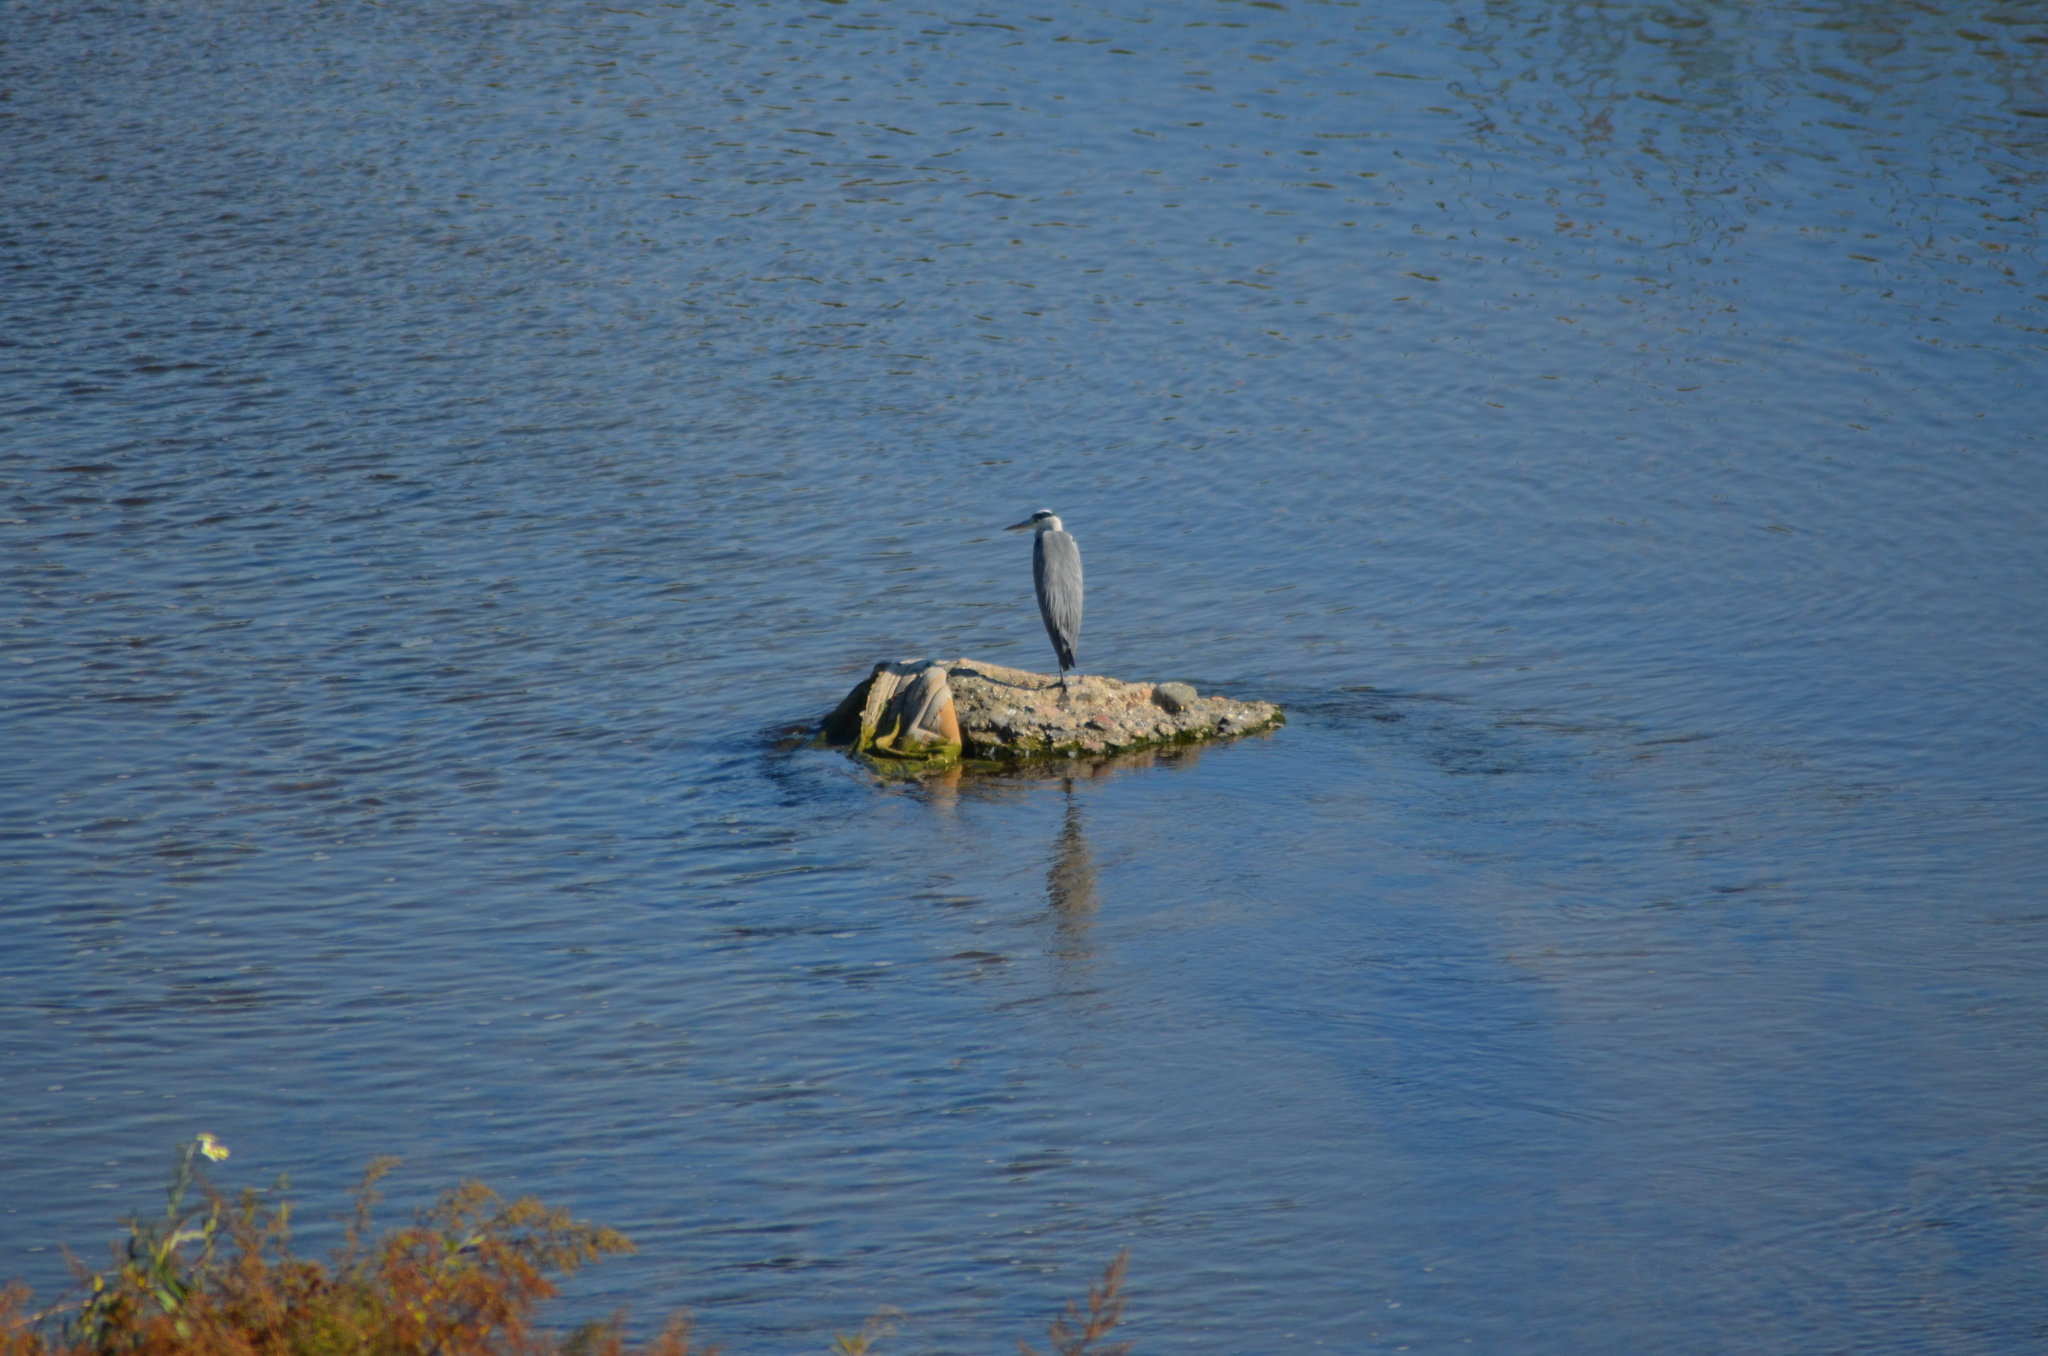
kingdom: Animalia
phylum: Chordata
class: Aves
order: Pelecaniformes
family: Ardeidae
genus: Ardea
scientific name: Ardea cinerea
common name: Grey heron
